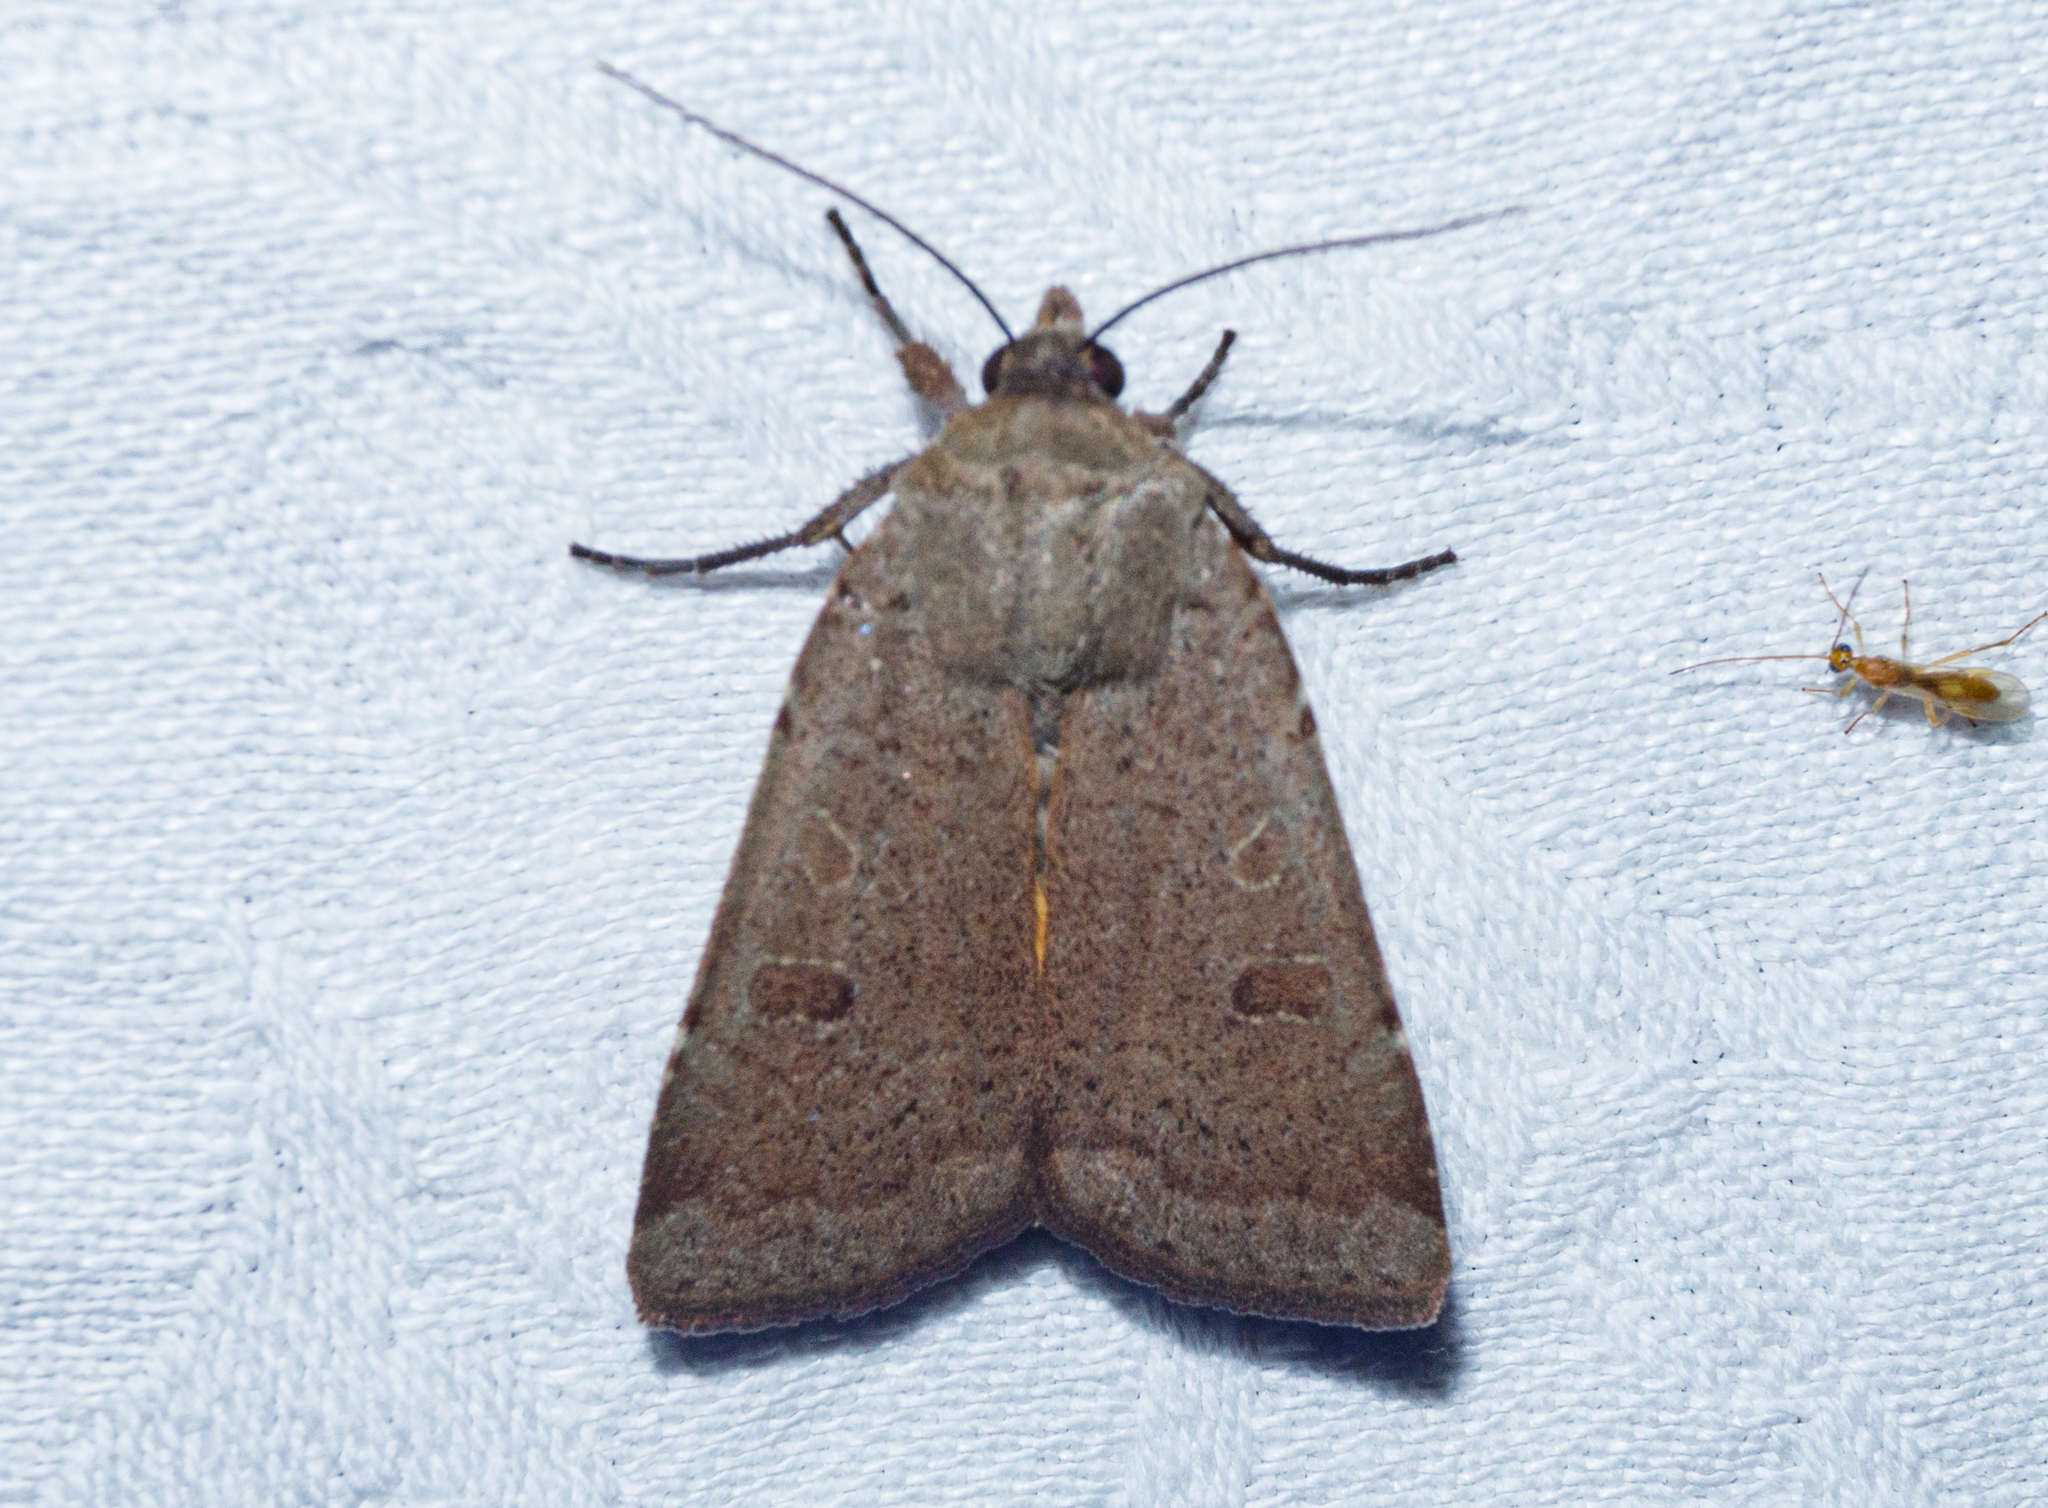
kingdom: Animalia
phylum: Arthropoda
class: Insecta
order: Lepidoptera
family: Noctuidae
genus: Noctua
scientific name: Noctua comes
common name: Lesser yellow underwing
